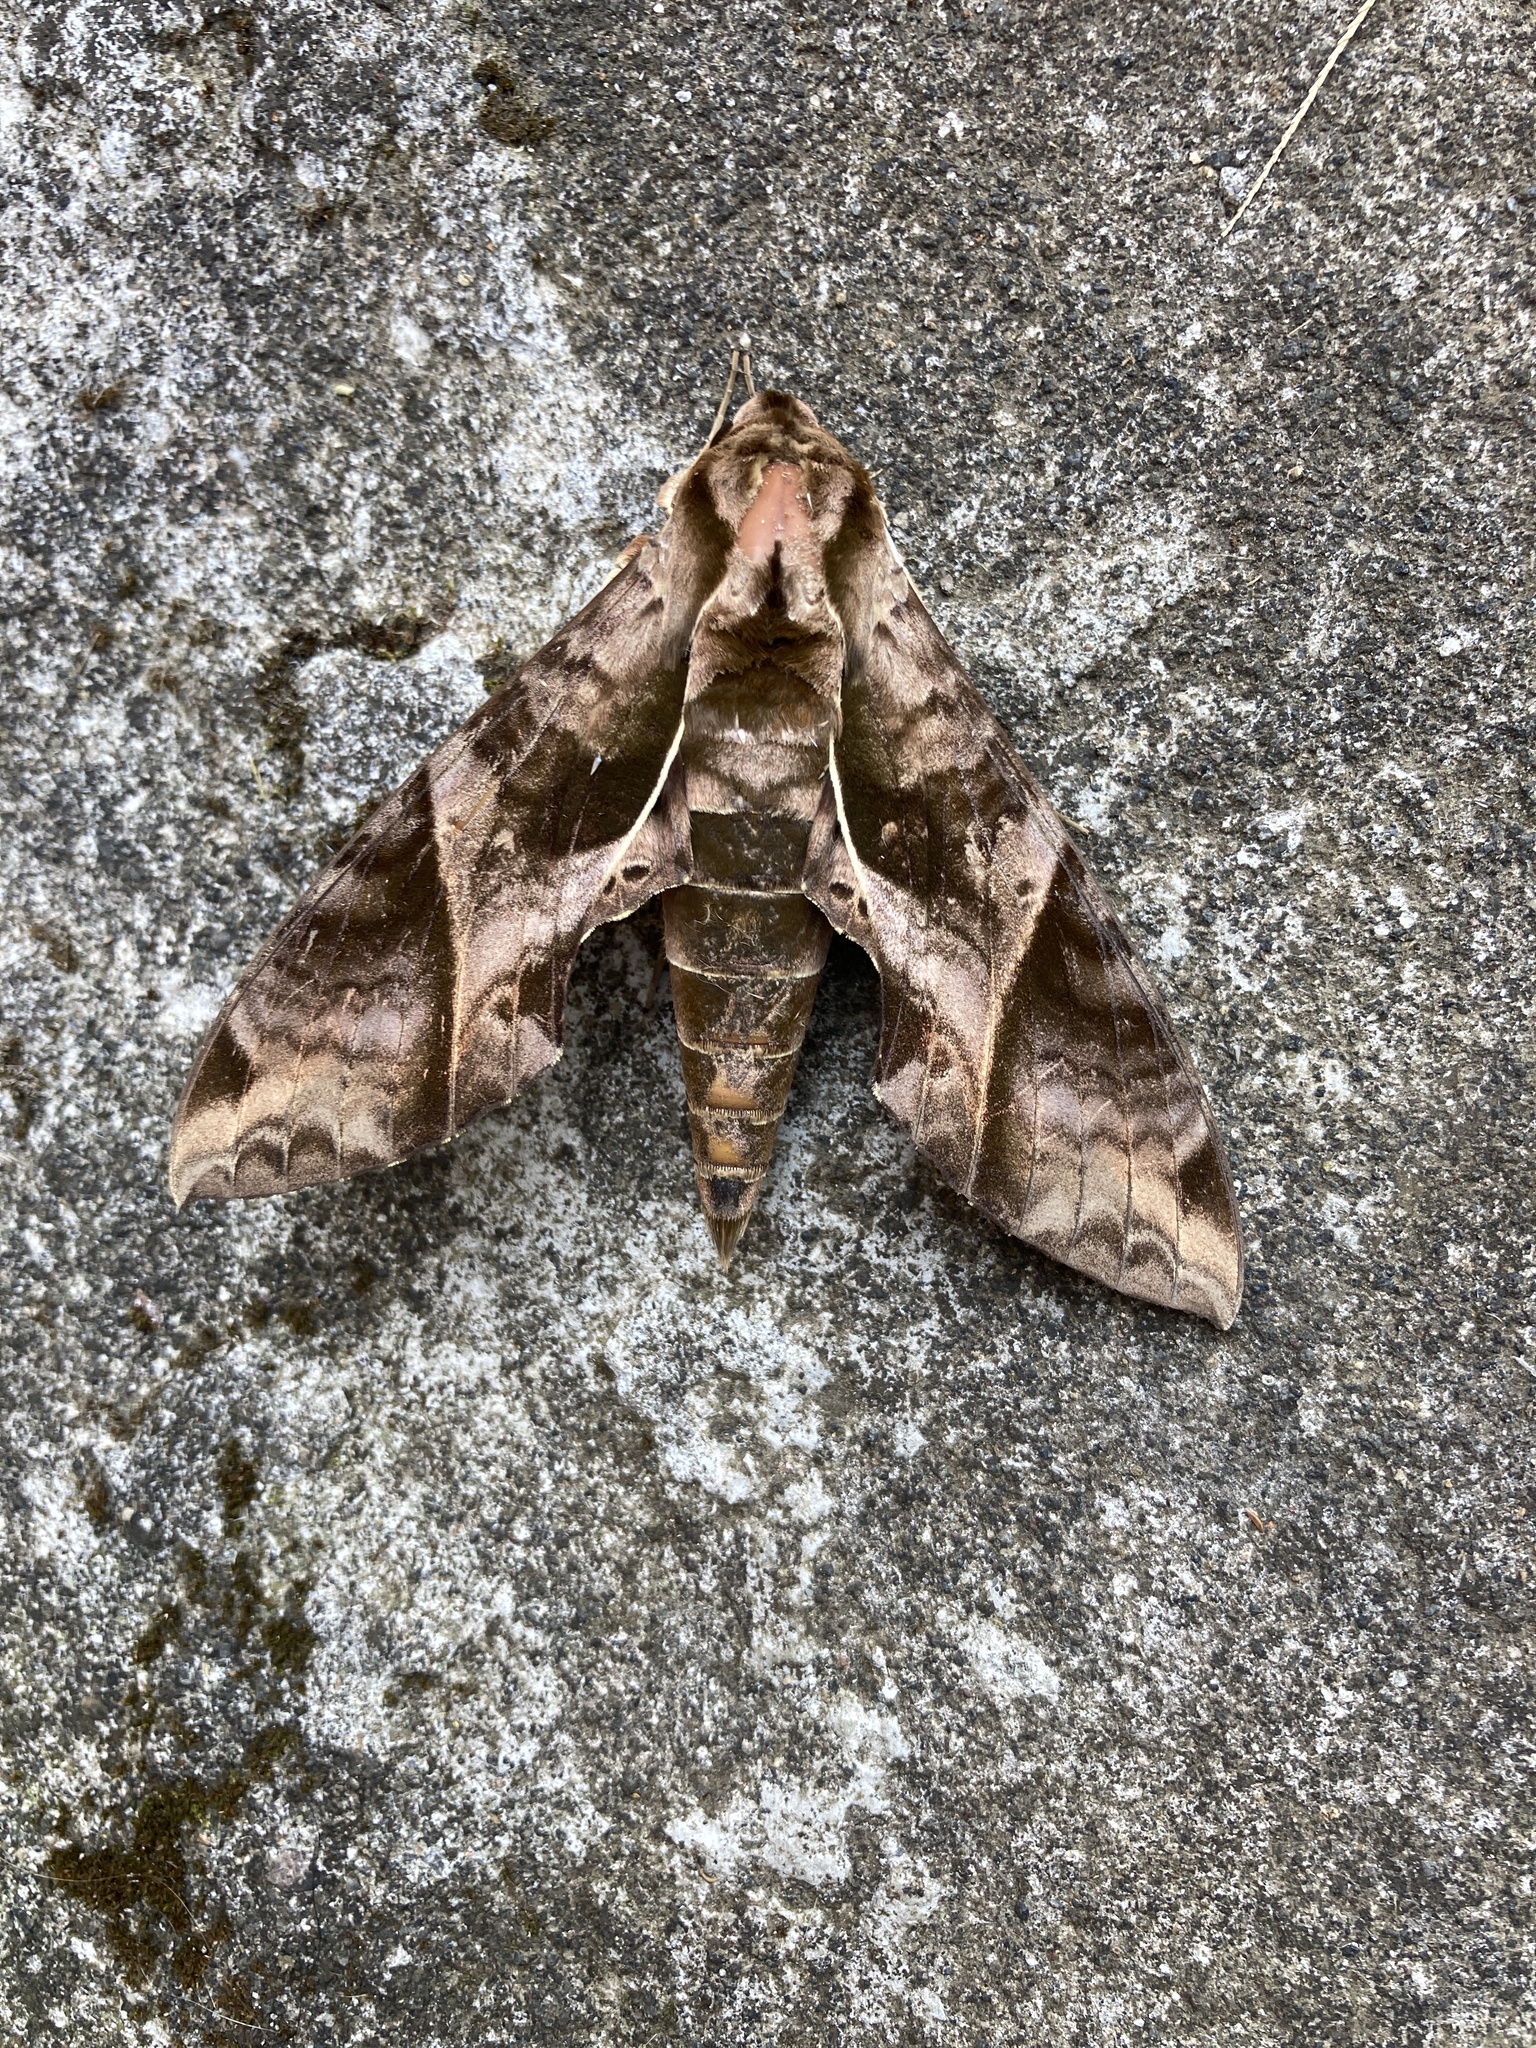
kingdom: Animalia
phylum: Arthropoda
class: Insecta
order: Lepidoptera
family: Sphingidae
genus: Eumorpha
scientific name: Eumorpha anchemolus
